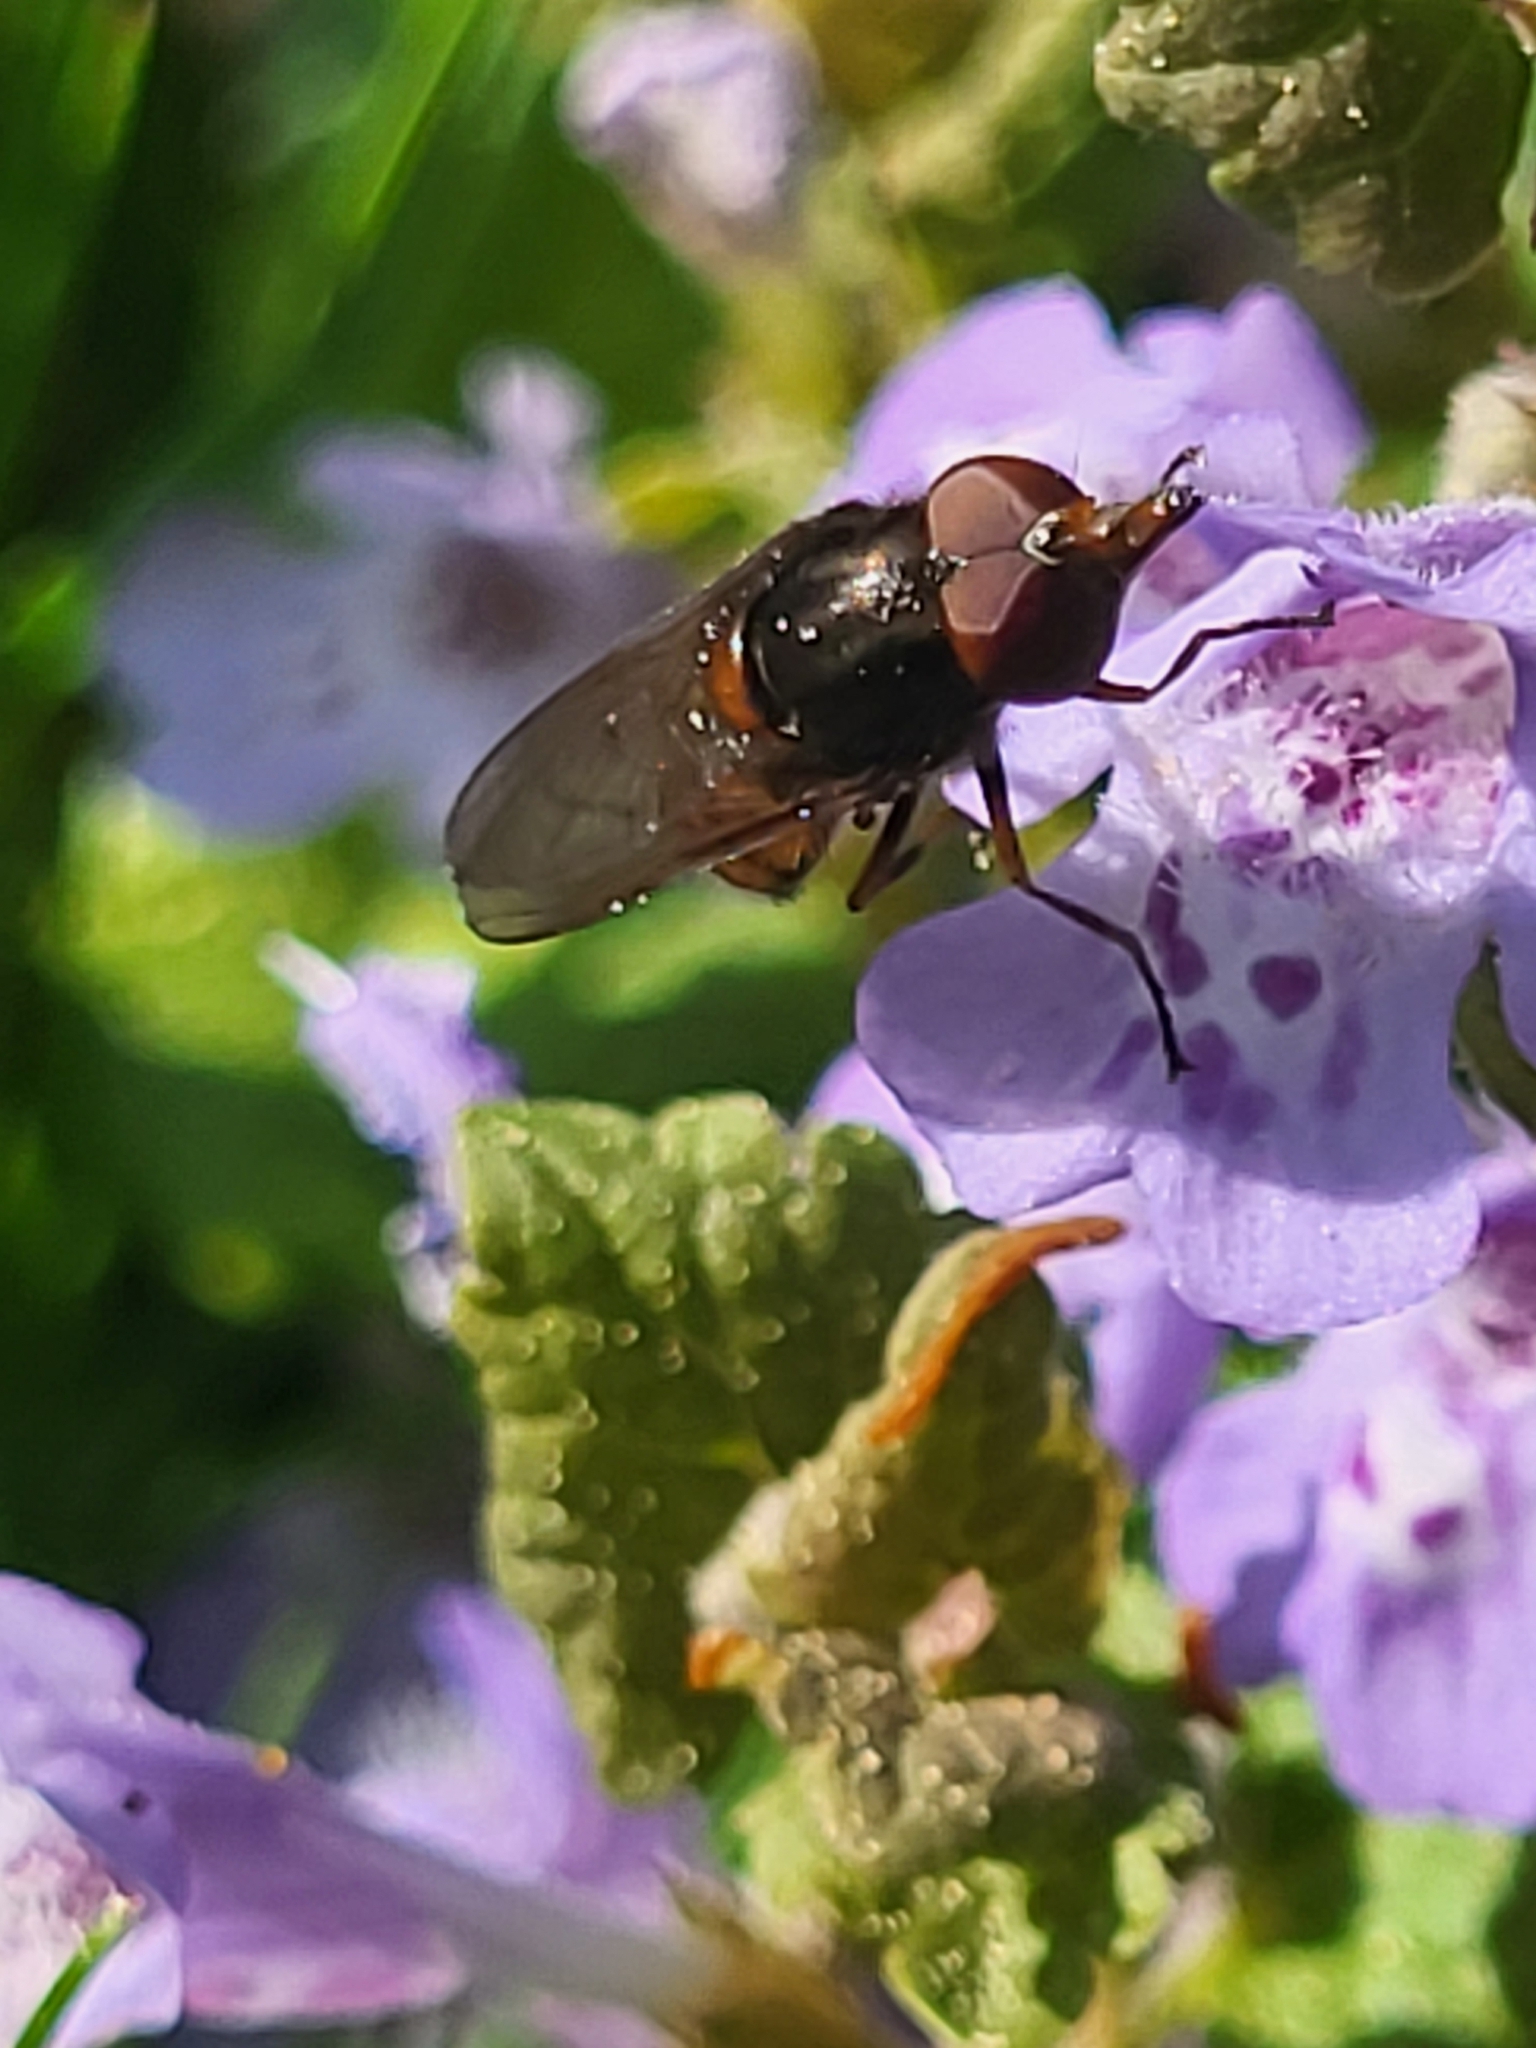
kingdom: Animalia
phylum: Arthropoda
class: Insecta
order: Diptera
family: Syrphidae
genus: Rhingia
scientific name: Rhingia campestris
